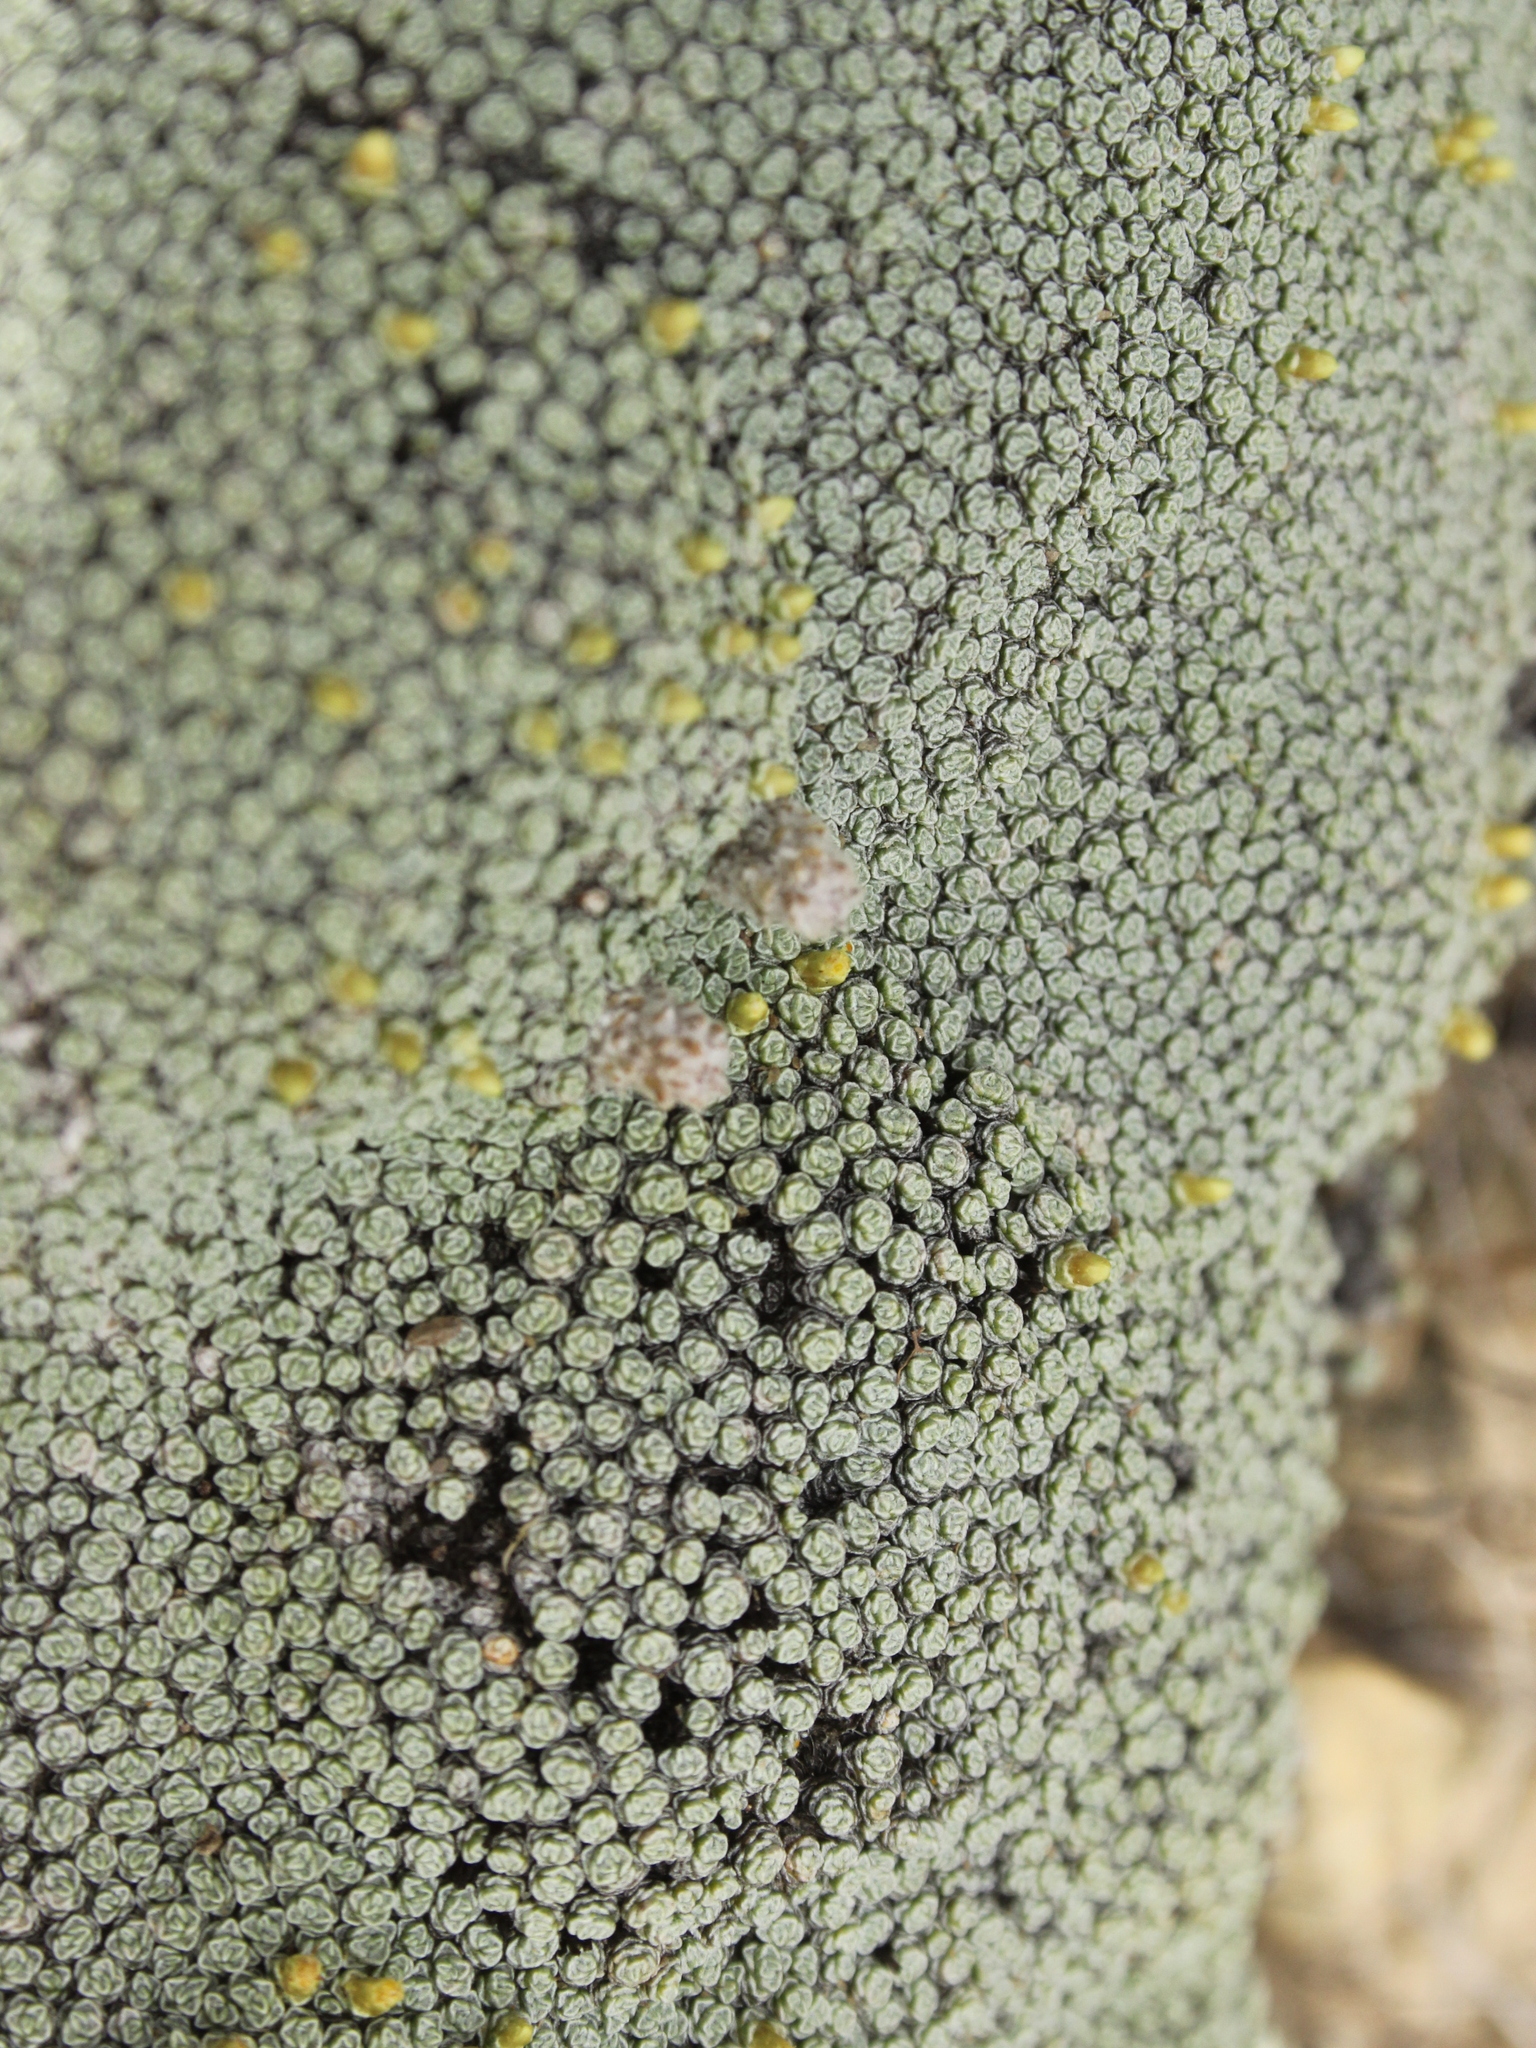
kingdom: Plantae
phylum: Tracheophyta
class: Magnoliopsida
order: Asterales
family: Asteraceae
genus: Raoulia
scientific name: Raoulia australis
